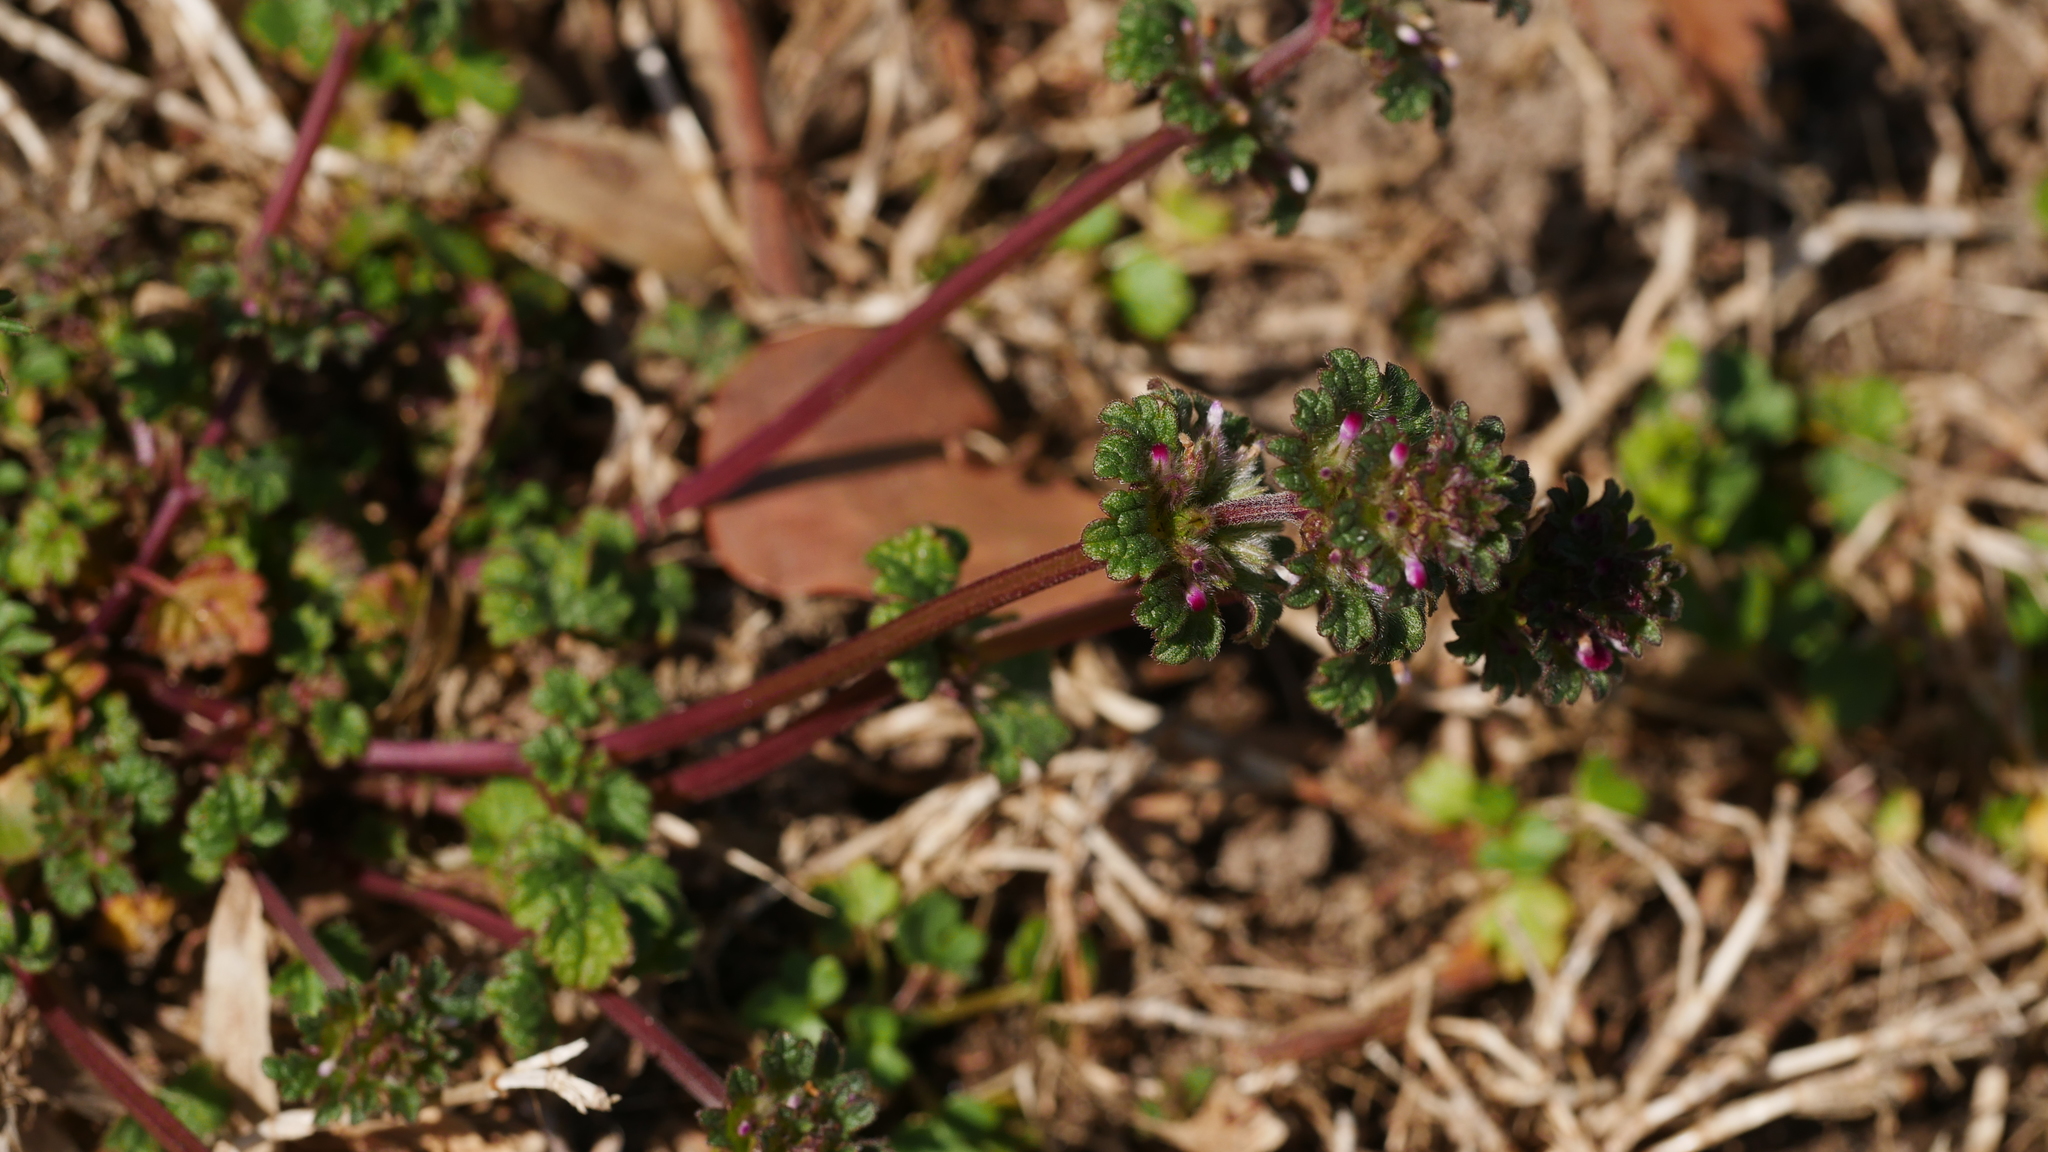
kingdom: Plantae
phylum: Tracheophyta
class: Magnoliopsida
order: Lamiales
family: Lamiaceae
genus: Lamium
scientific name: Lamium amplexicaule
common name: Henbit dead-nettle
